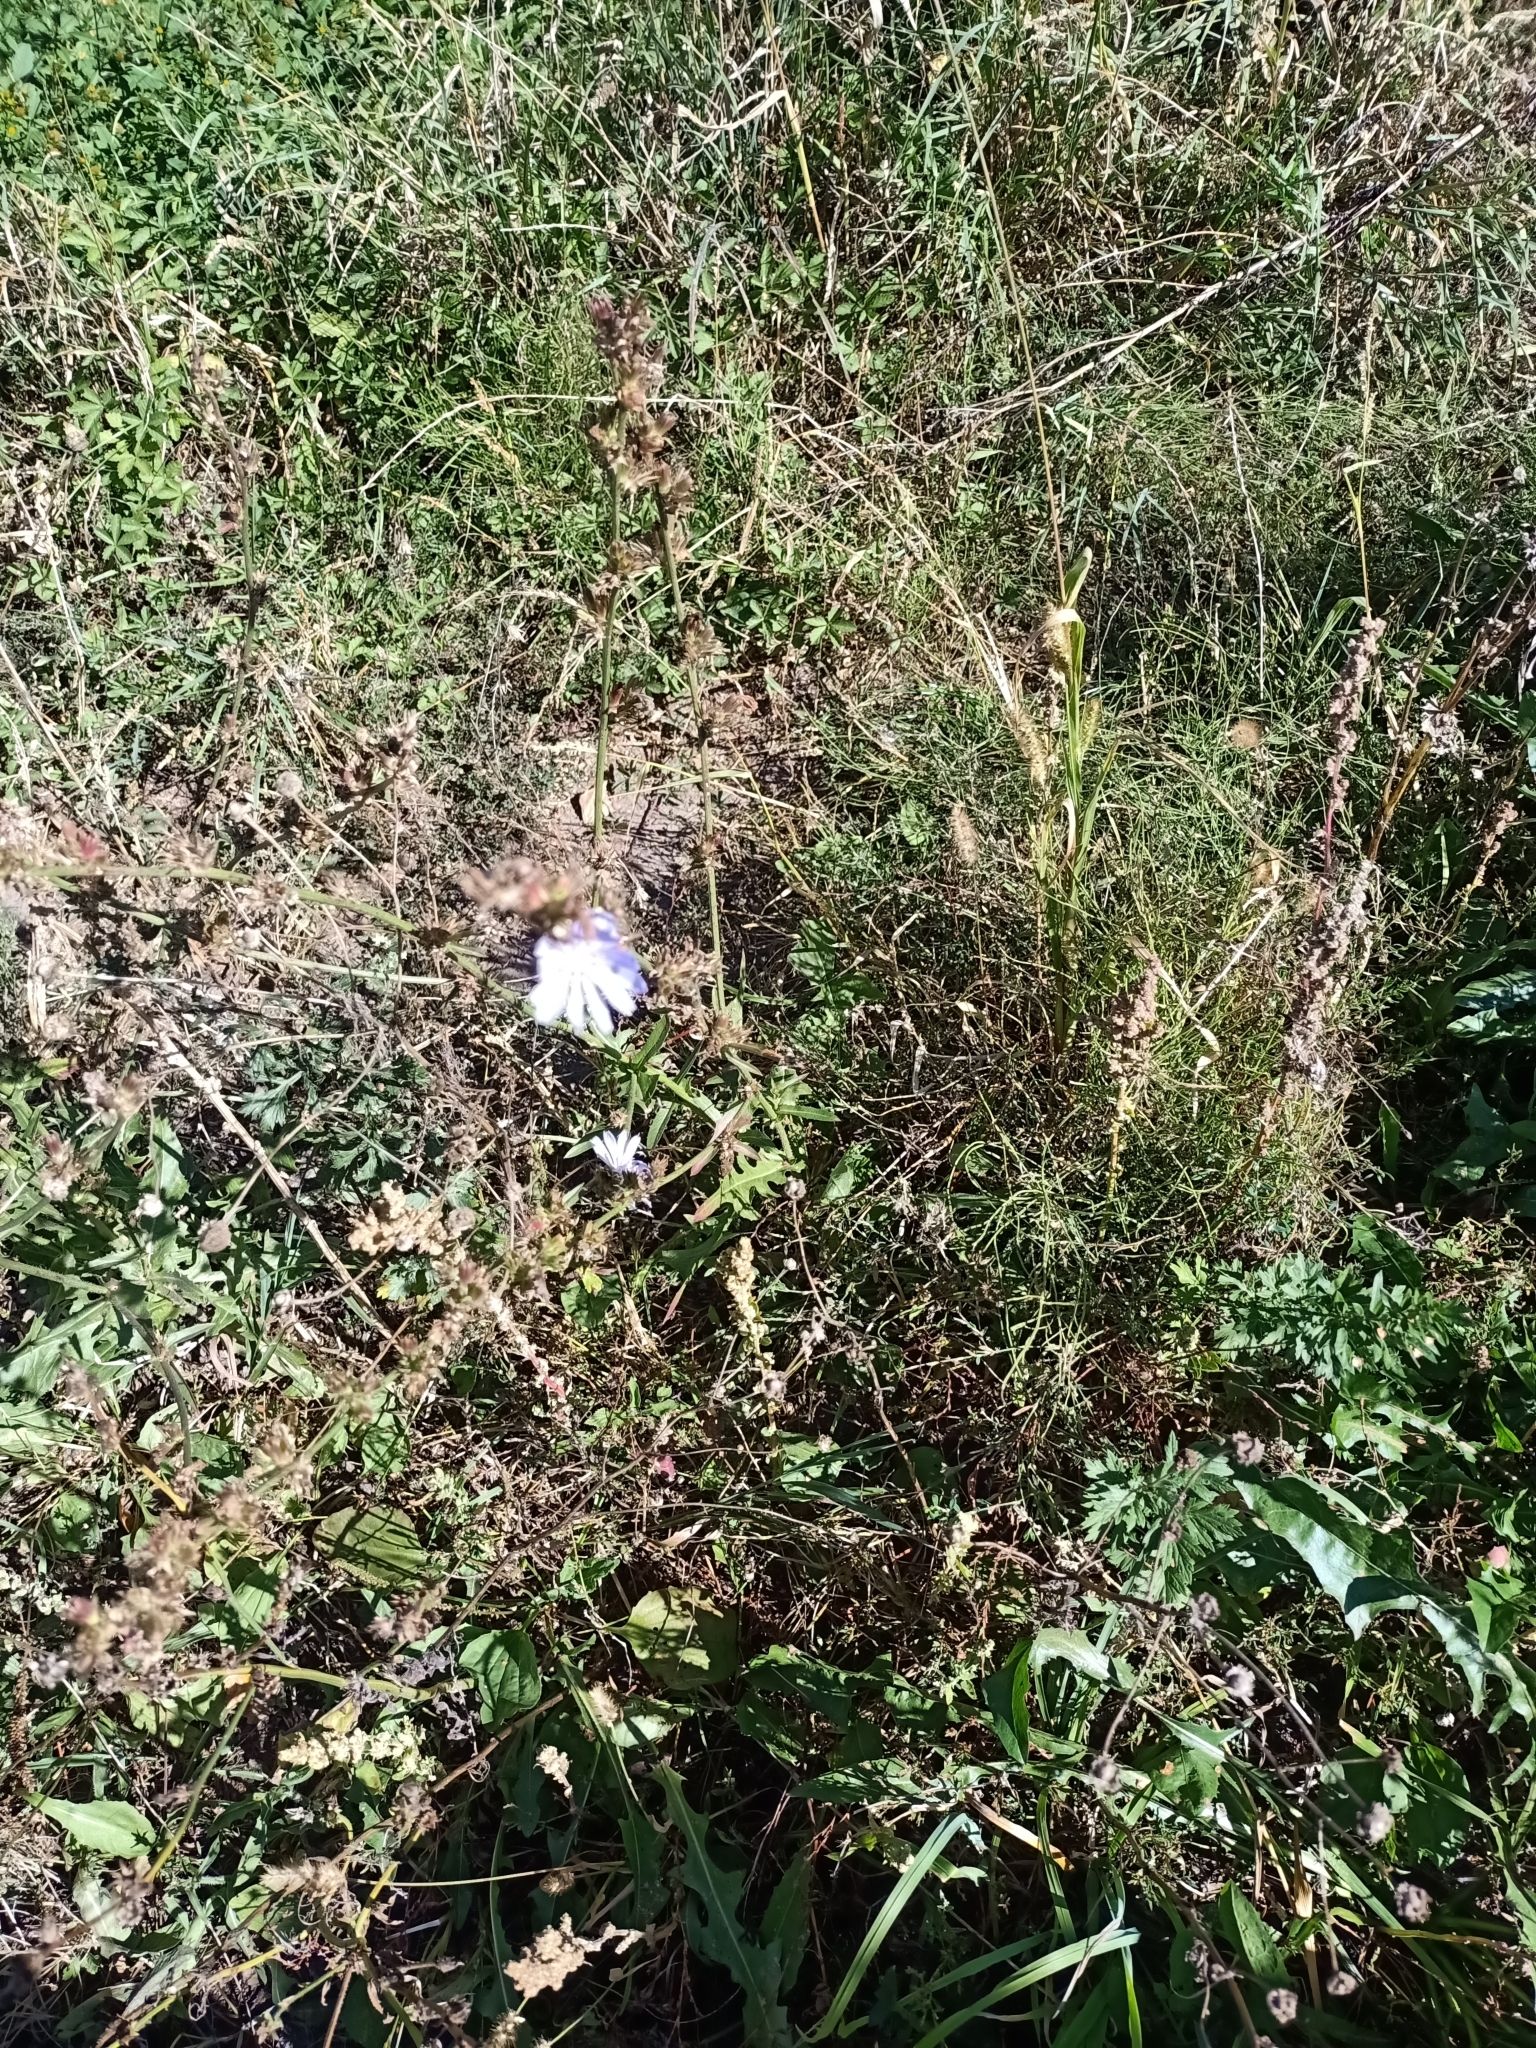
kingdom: Plantae
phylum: Tracheophyta
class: Magnoliopsida
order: Asterales
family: Asteraceae
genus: Cichorium
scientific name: Cichorium intybus
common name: Chicory
